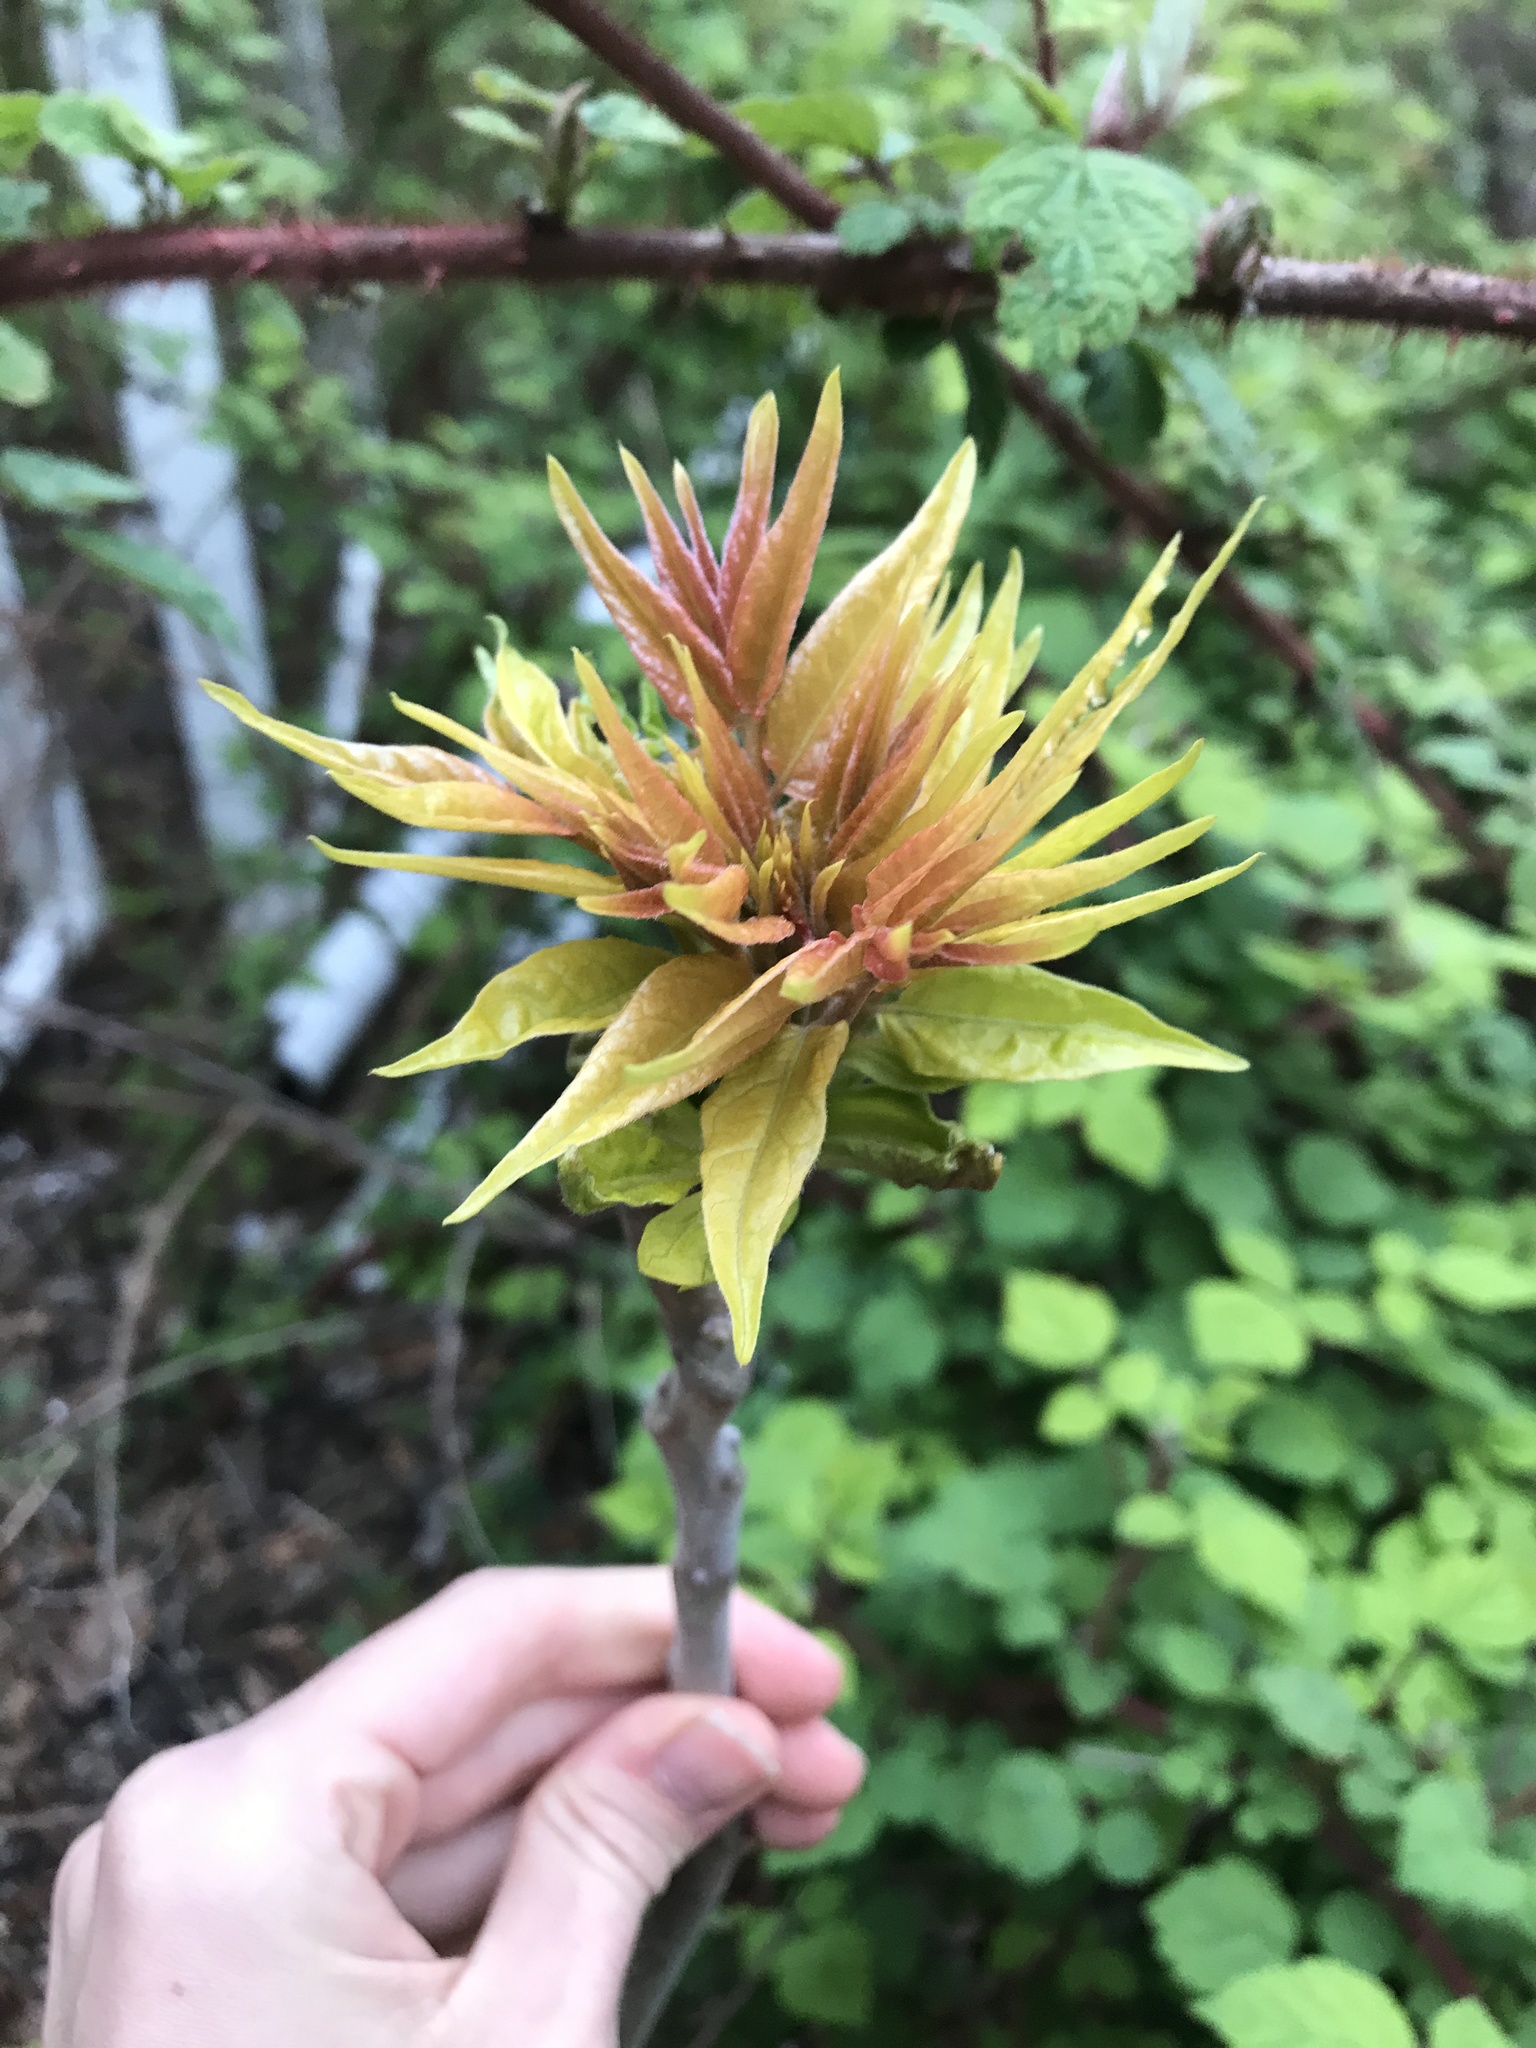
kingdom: Plantae
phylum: Tracheophyta
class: Magnoliopsida
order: Sapindales
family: Simaroubaceae
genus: Ailanthus
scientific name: Ailanthus altissima
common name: Tree-of-heaven
